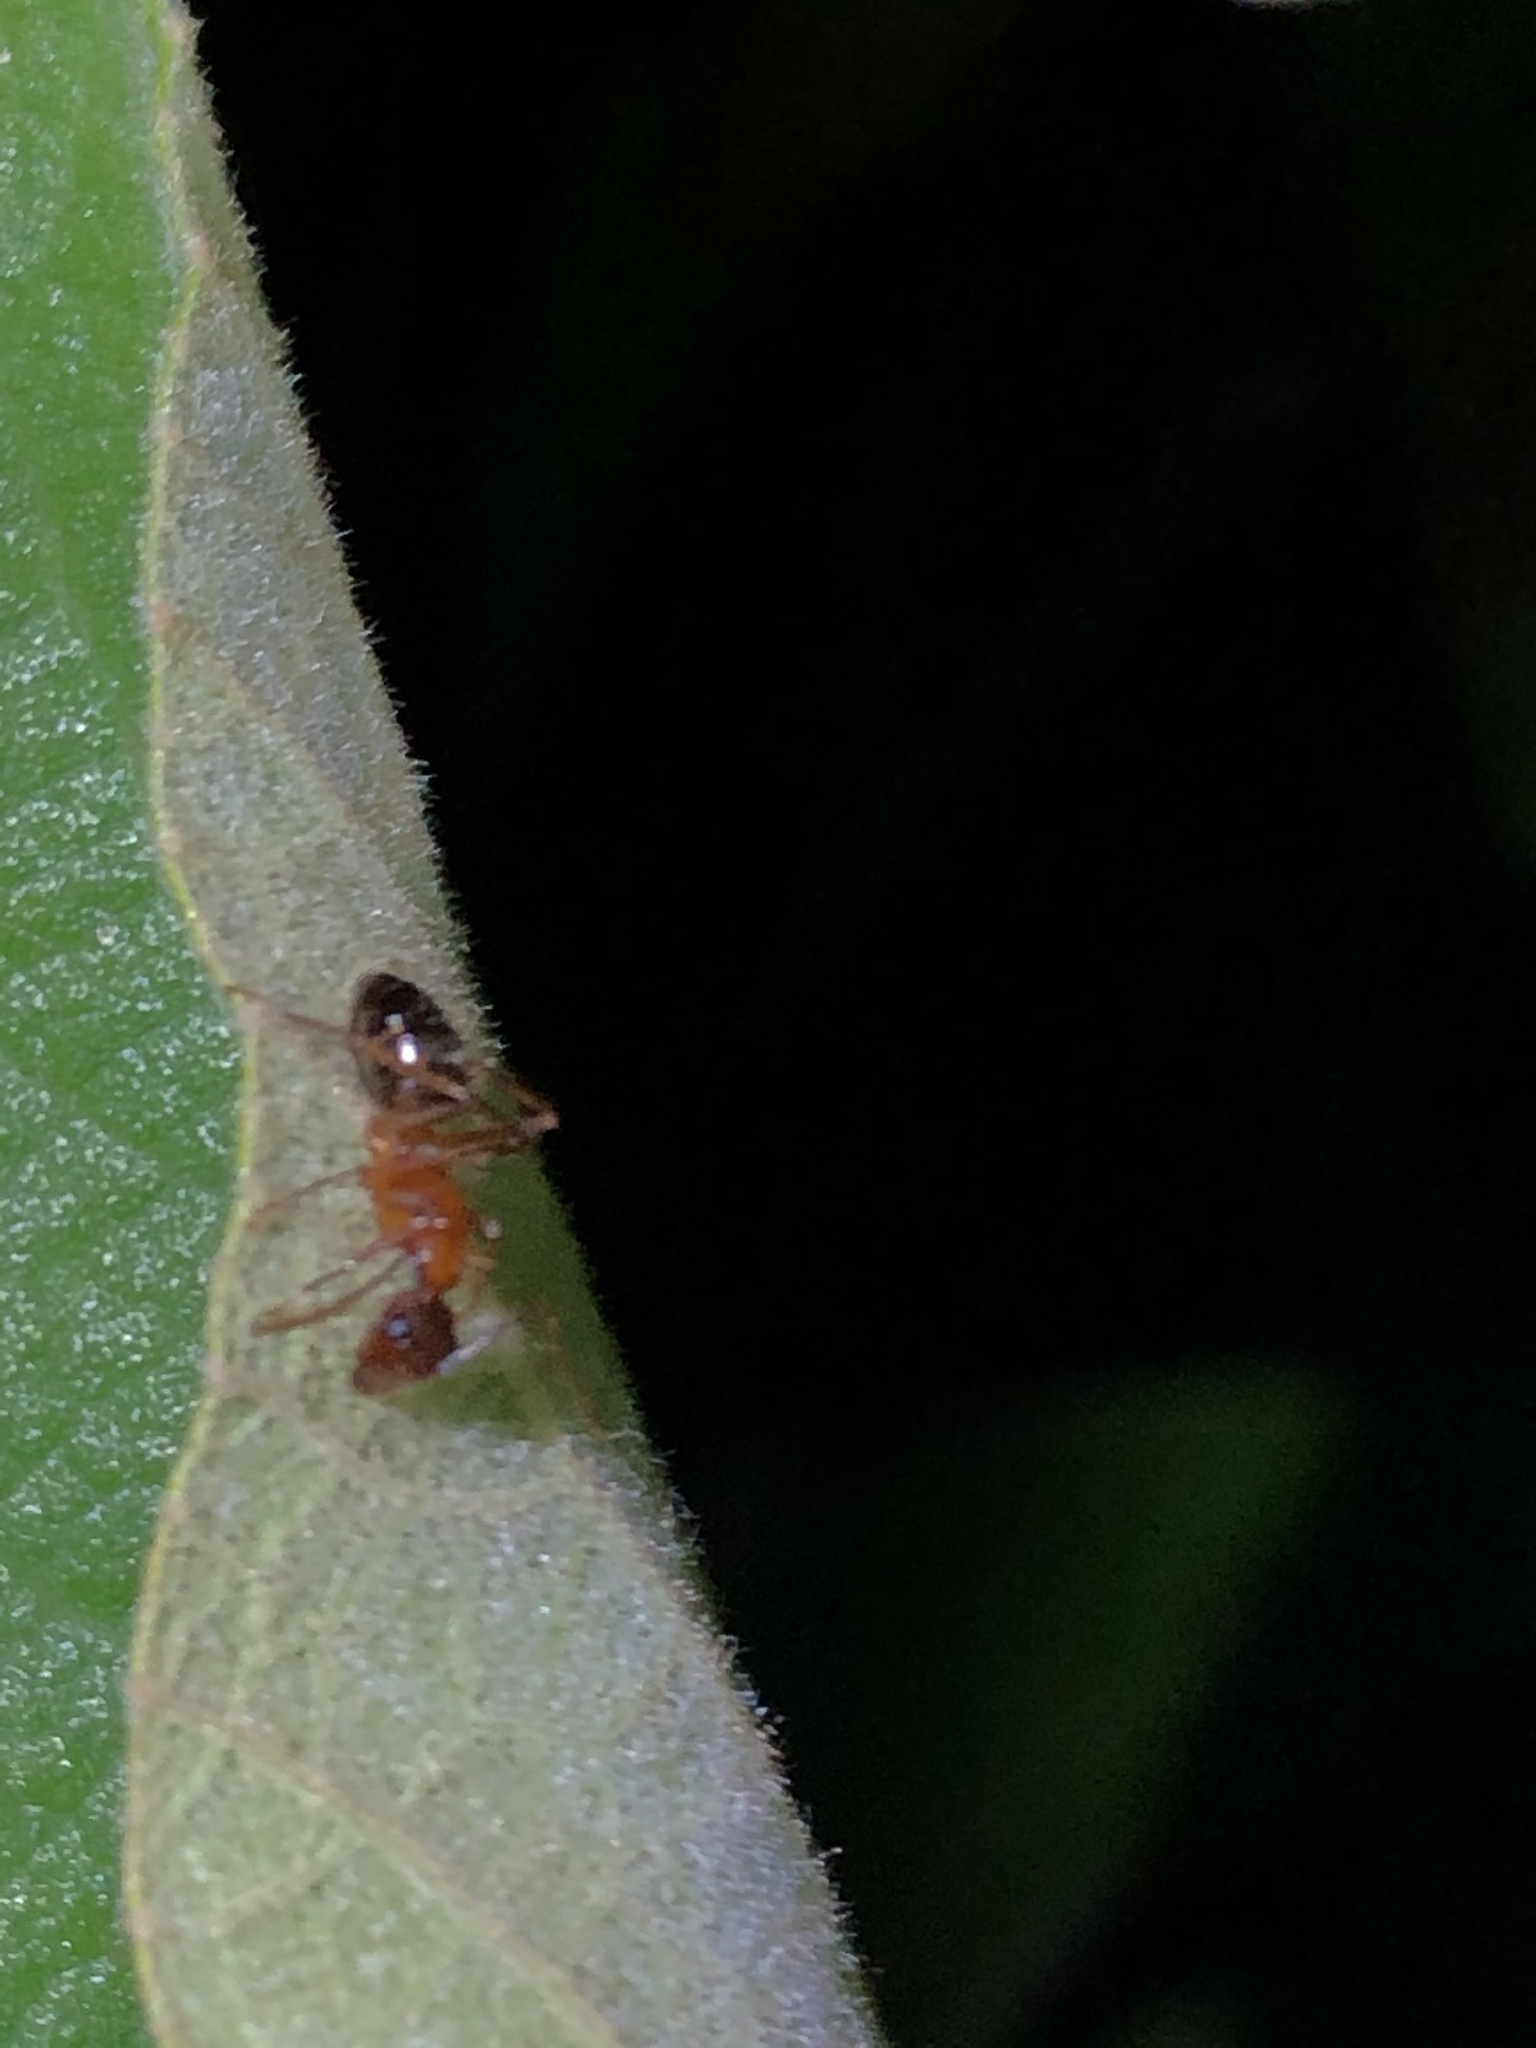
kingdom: Animalia
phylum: Arthropoda
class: Insecta
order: Hymenoptera
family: Formicidae
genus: Camponotus
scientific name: Camponotus atriceps
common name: Florida carpenter ant
